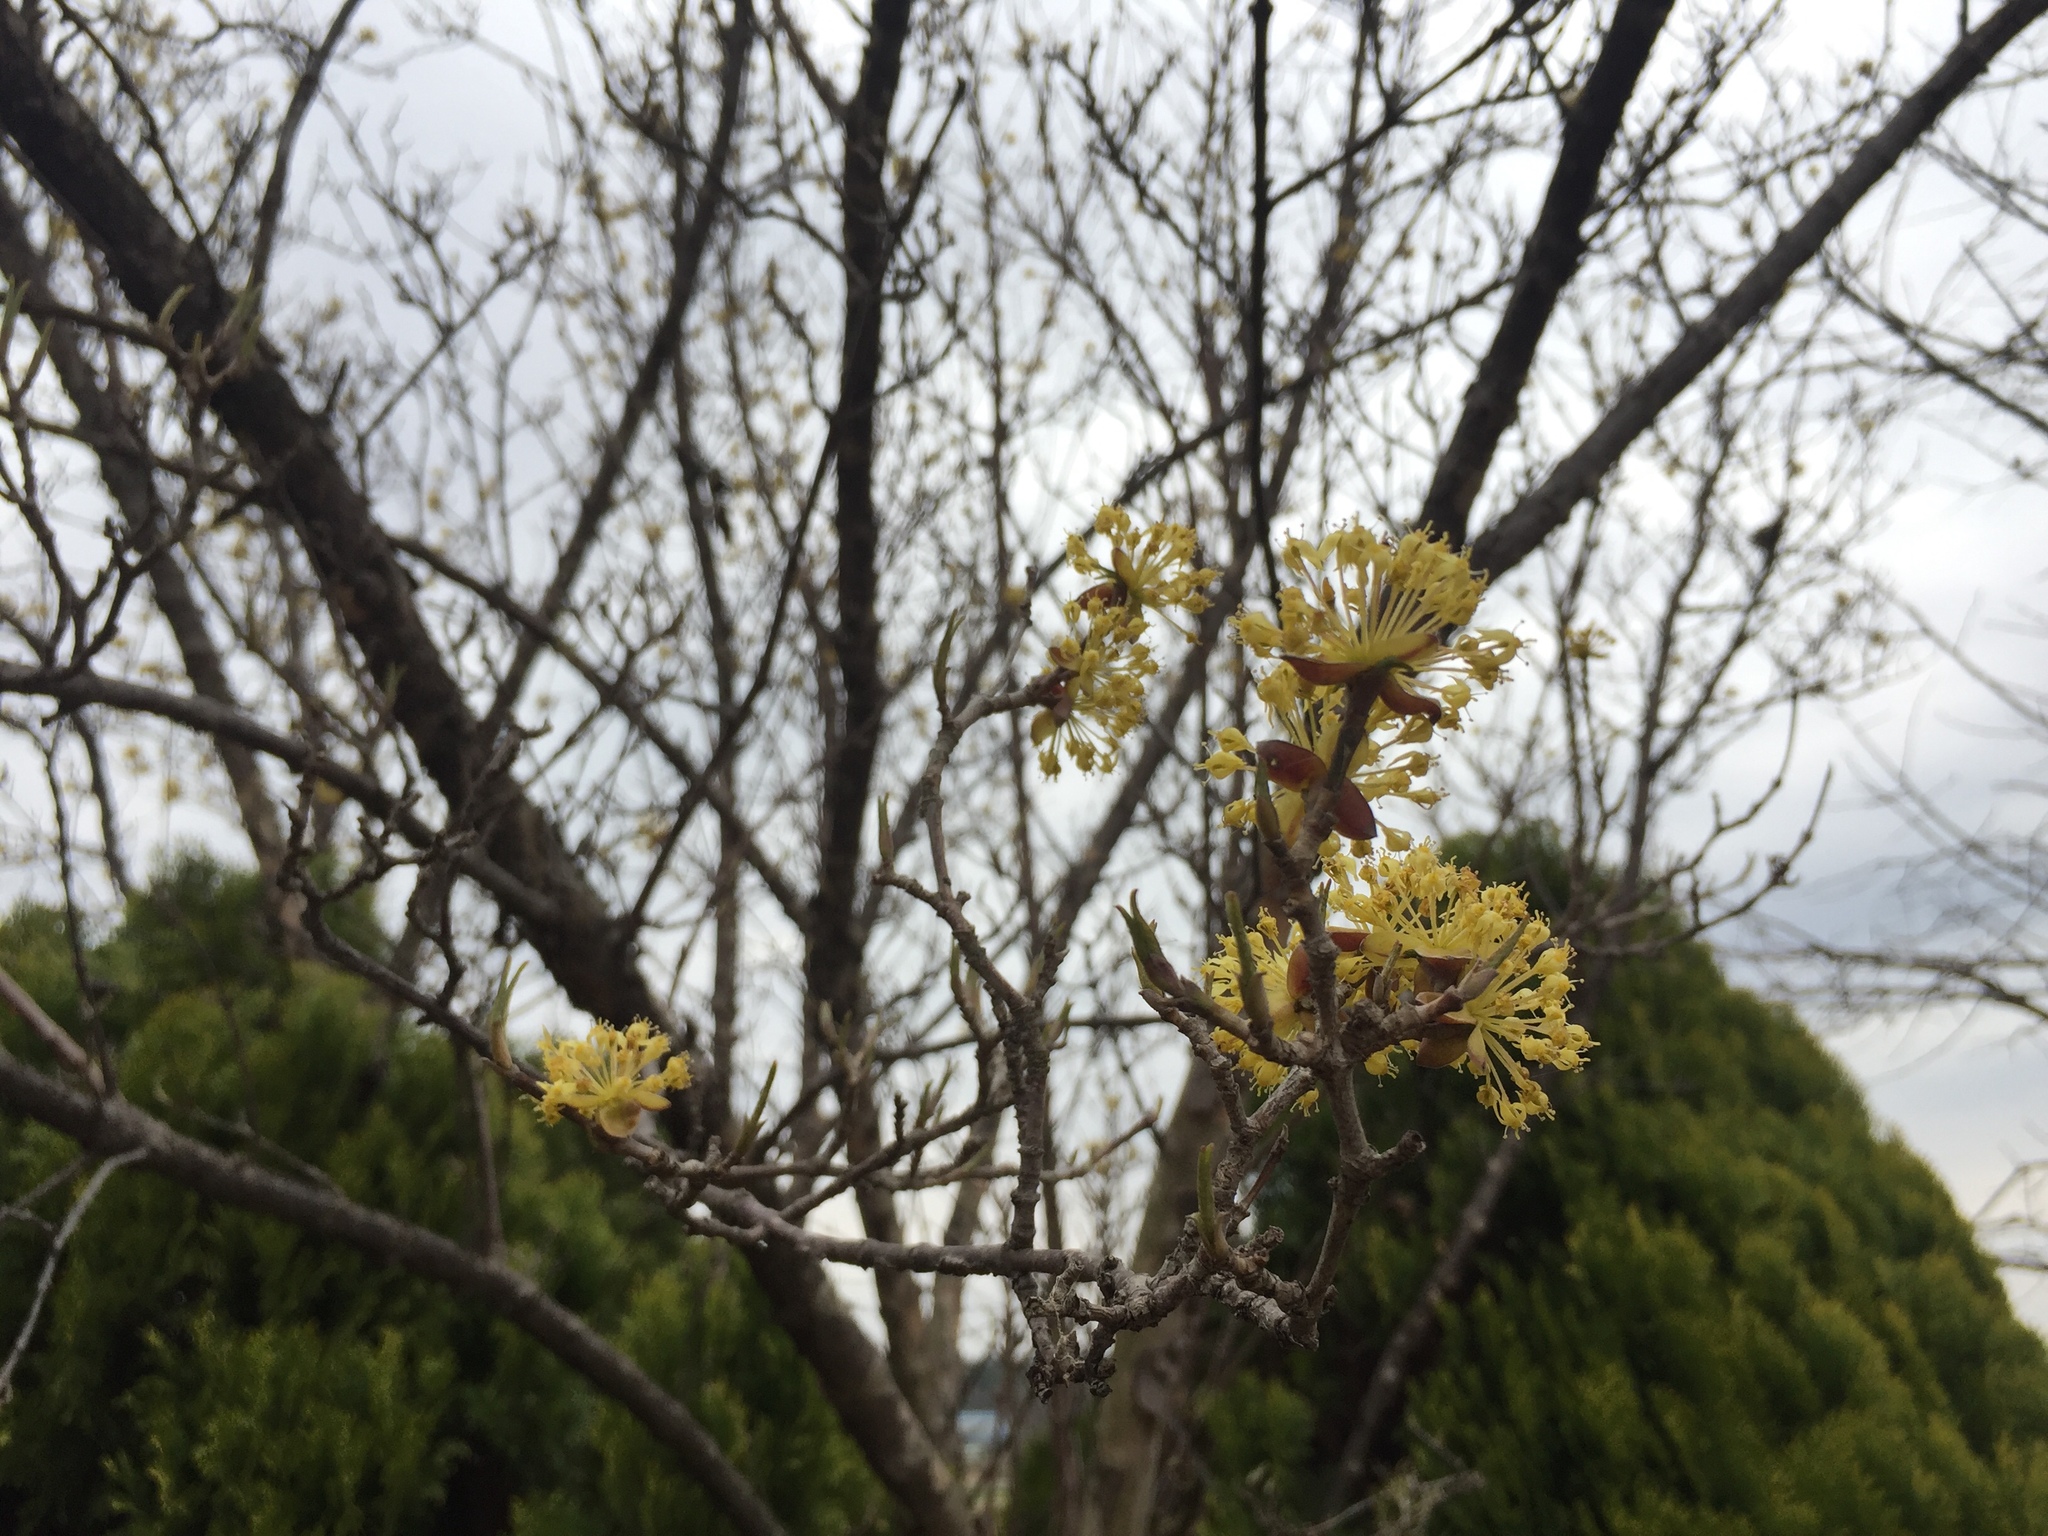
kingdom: Plantae
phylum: Tracheophyta
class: Magnoliopsida
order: Cornales
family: Cornaceae
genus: Cornus
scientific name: Cornus officinalis
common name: Asiatic dogwood
